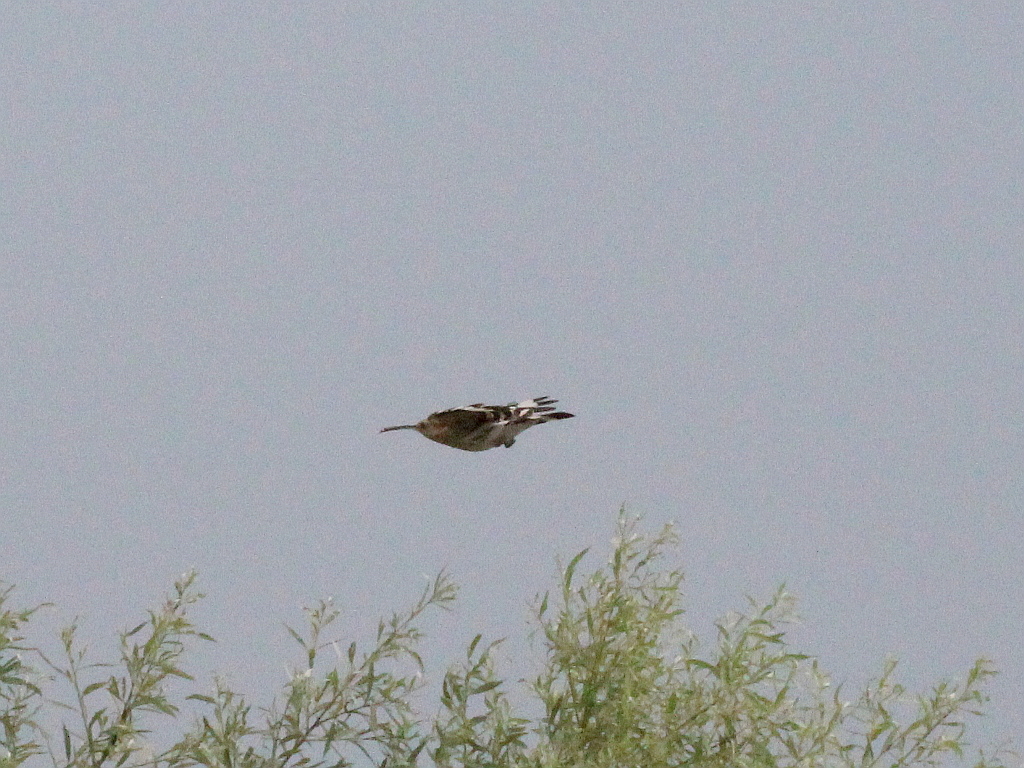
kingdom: Animalia
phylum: Chordata
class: Aves
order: Bucerotiformes
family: Upupidae
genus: Upupa
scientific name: Upupa epops
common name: Eurasian hoopoe
